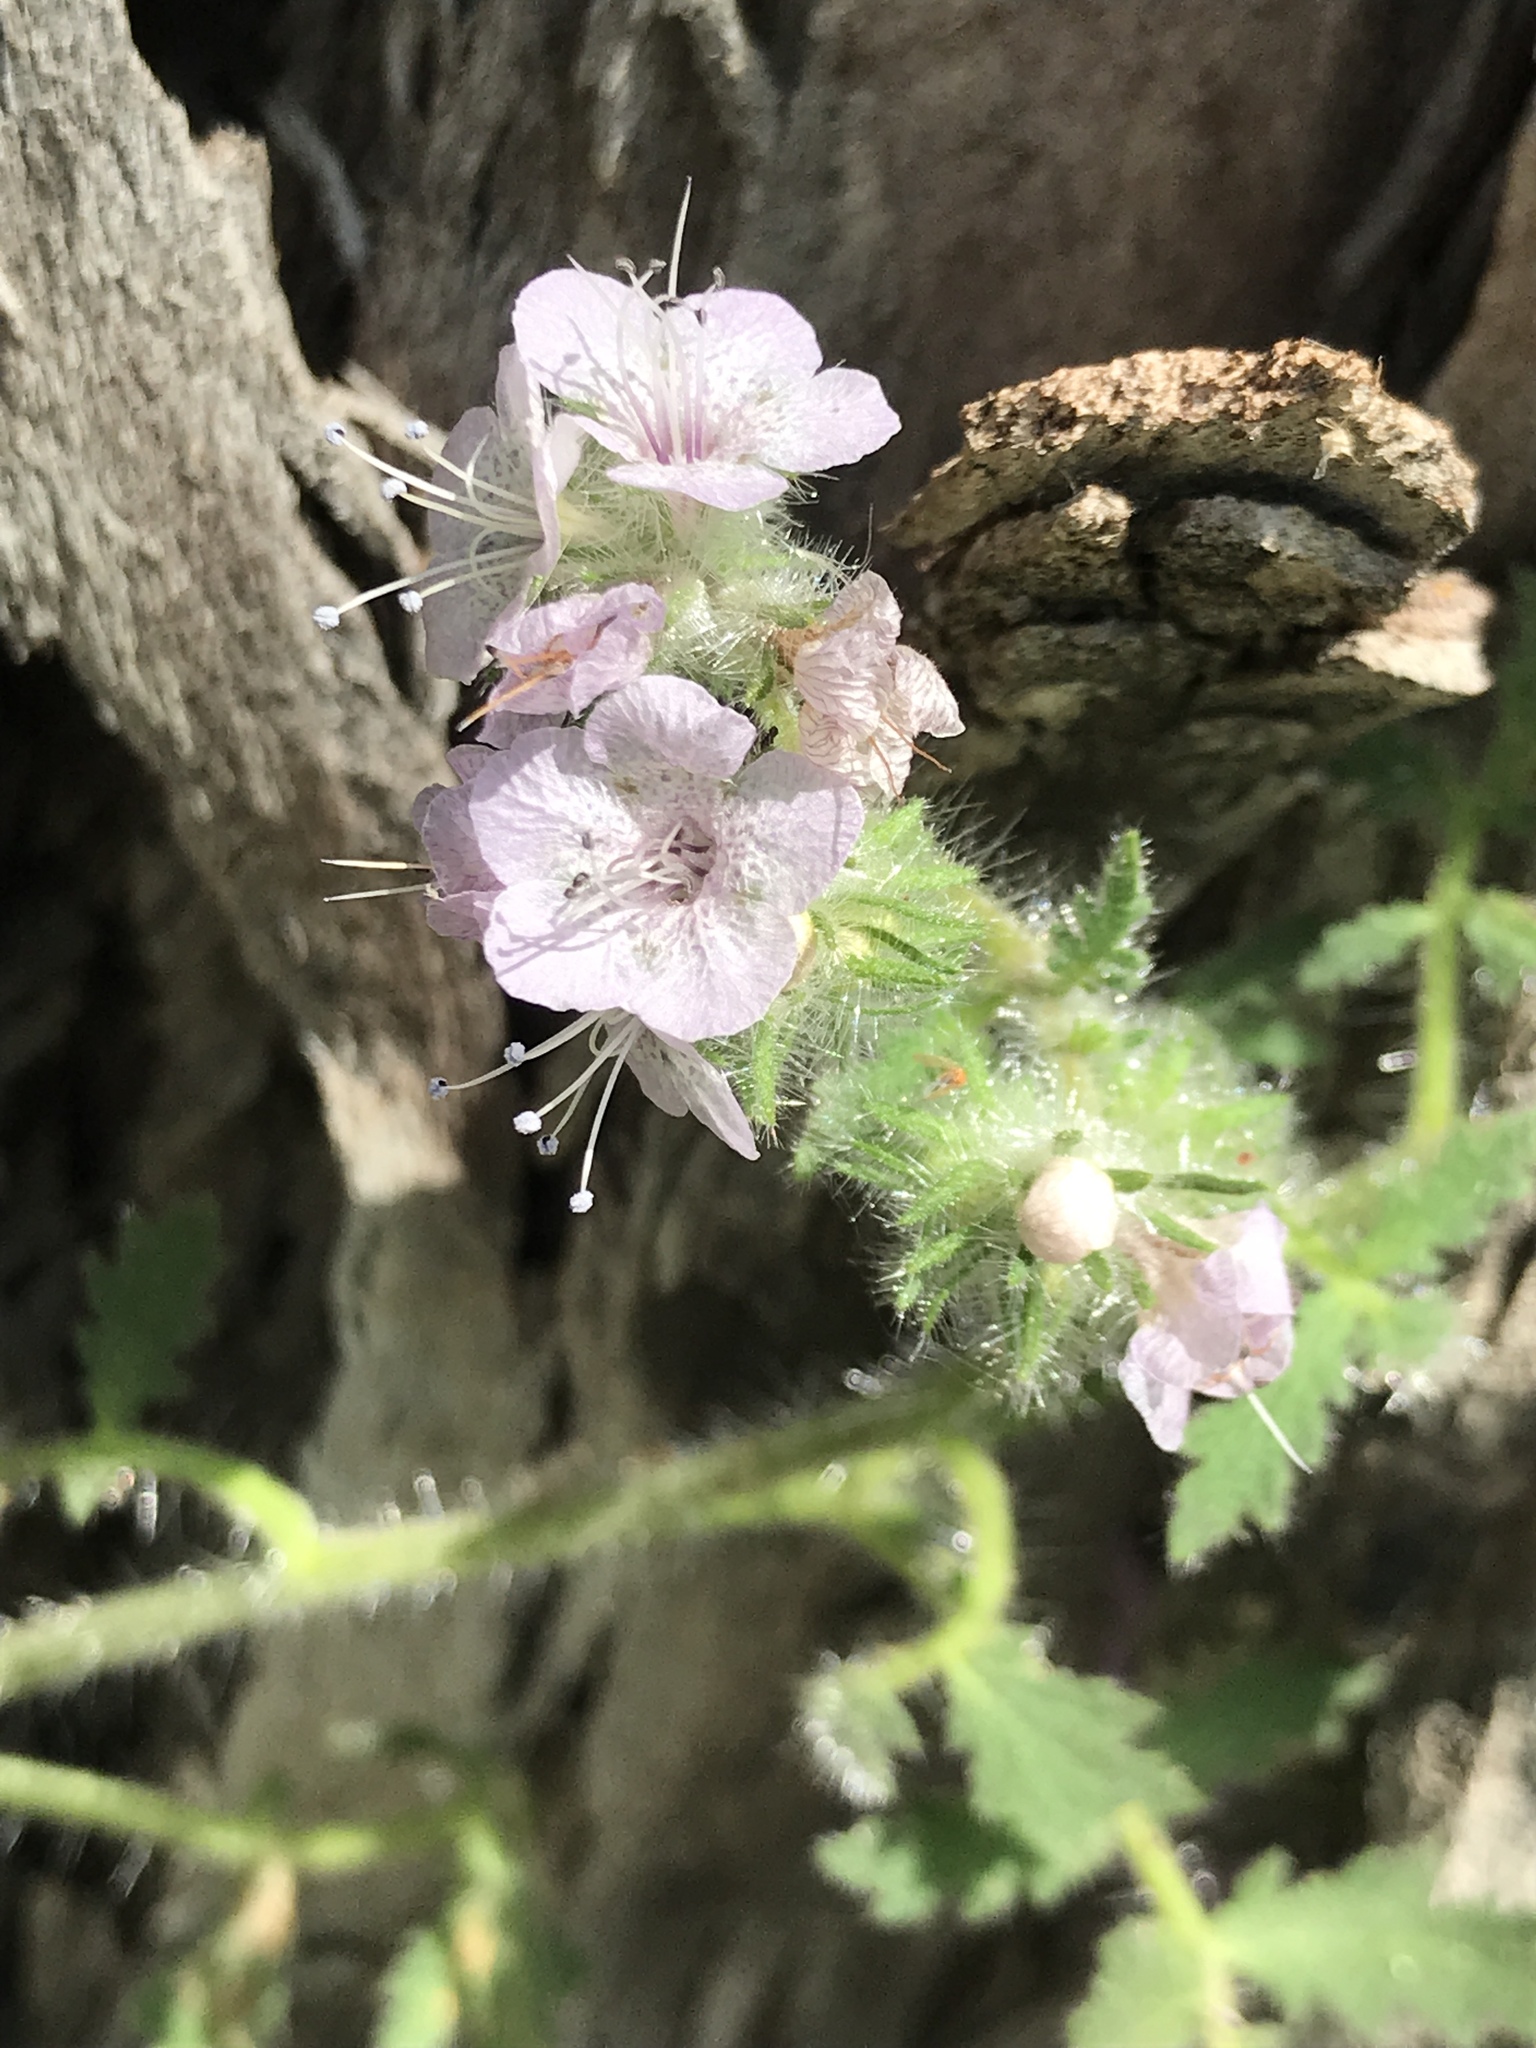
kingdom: Plantae
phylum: Tracheophyta
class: Magnoliopsida
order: Boraginales
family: Hydrophyllaceae
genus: Phacelia
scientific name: Phacelia cicutaria
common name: Caterpillar phacelia
